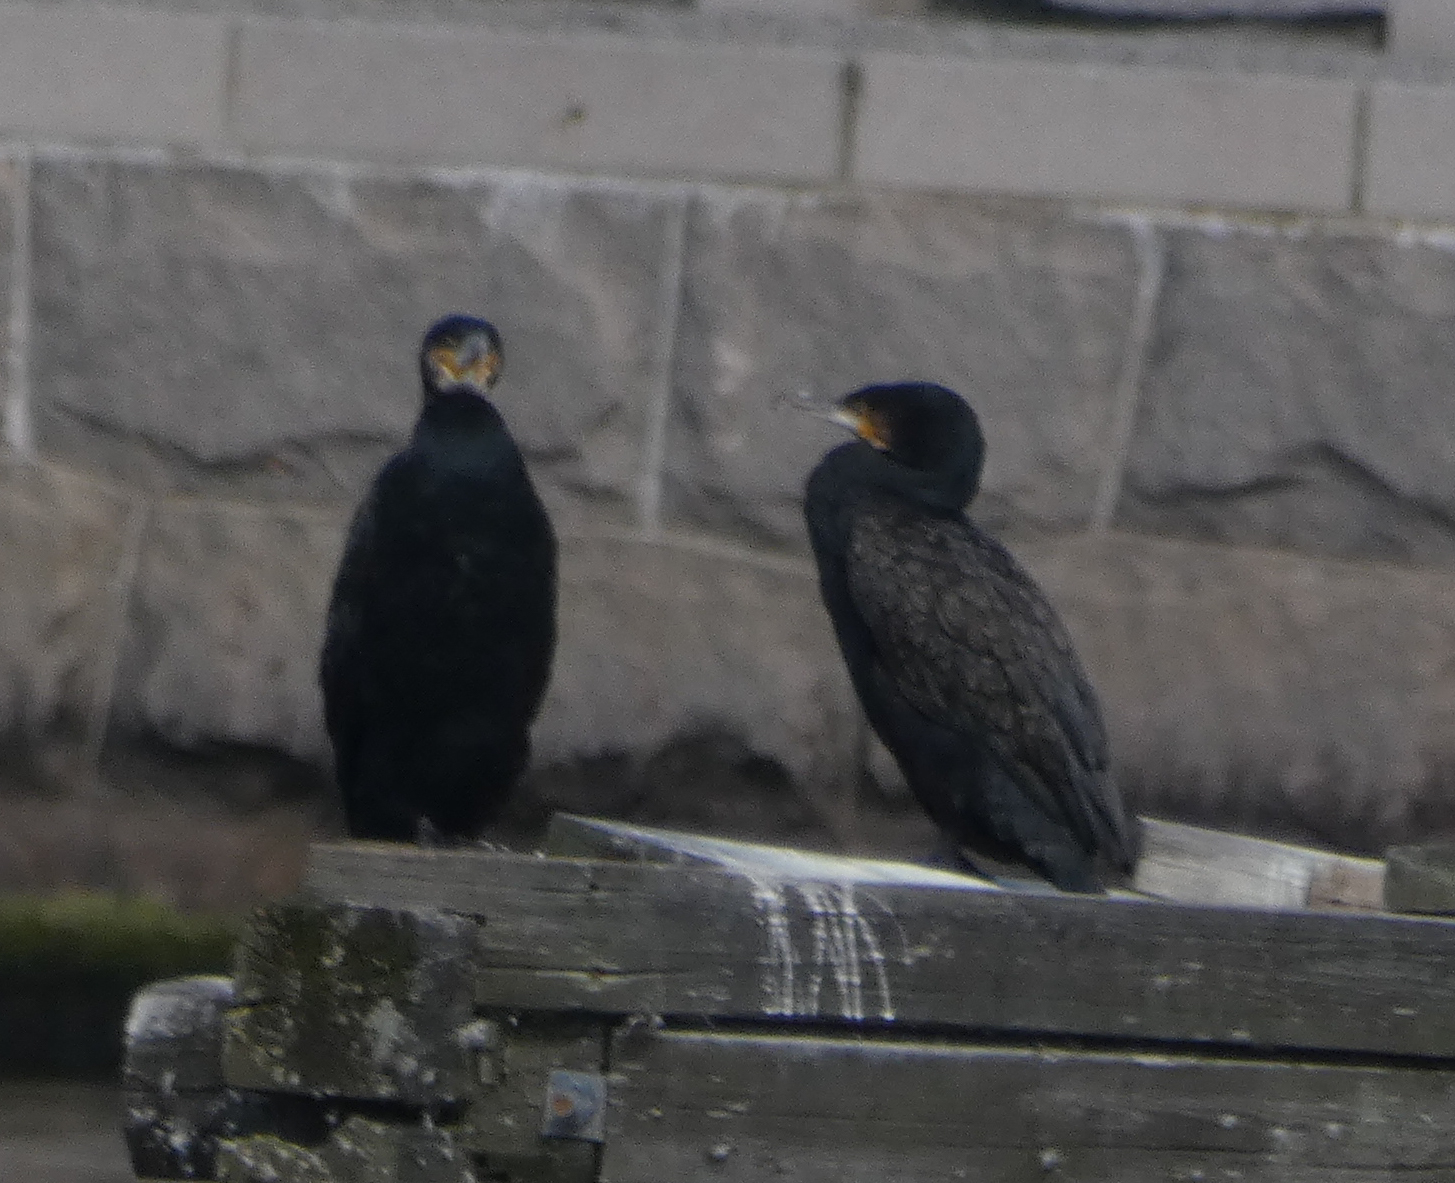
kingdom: Animalia
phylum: Chordata
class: Aves
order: Suliformes
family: Phalacrocoracidae
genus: Phalacrocorax
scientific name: Phalacrocorax carbo
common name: Great cormorant
